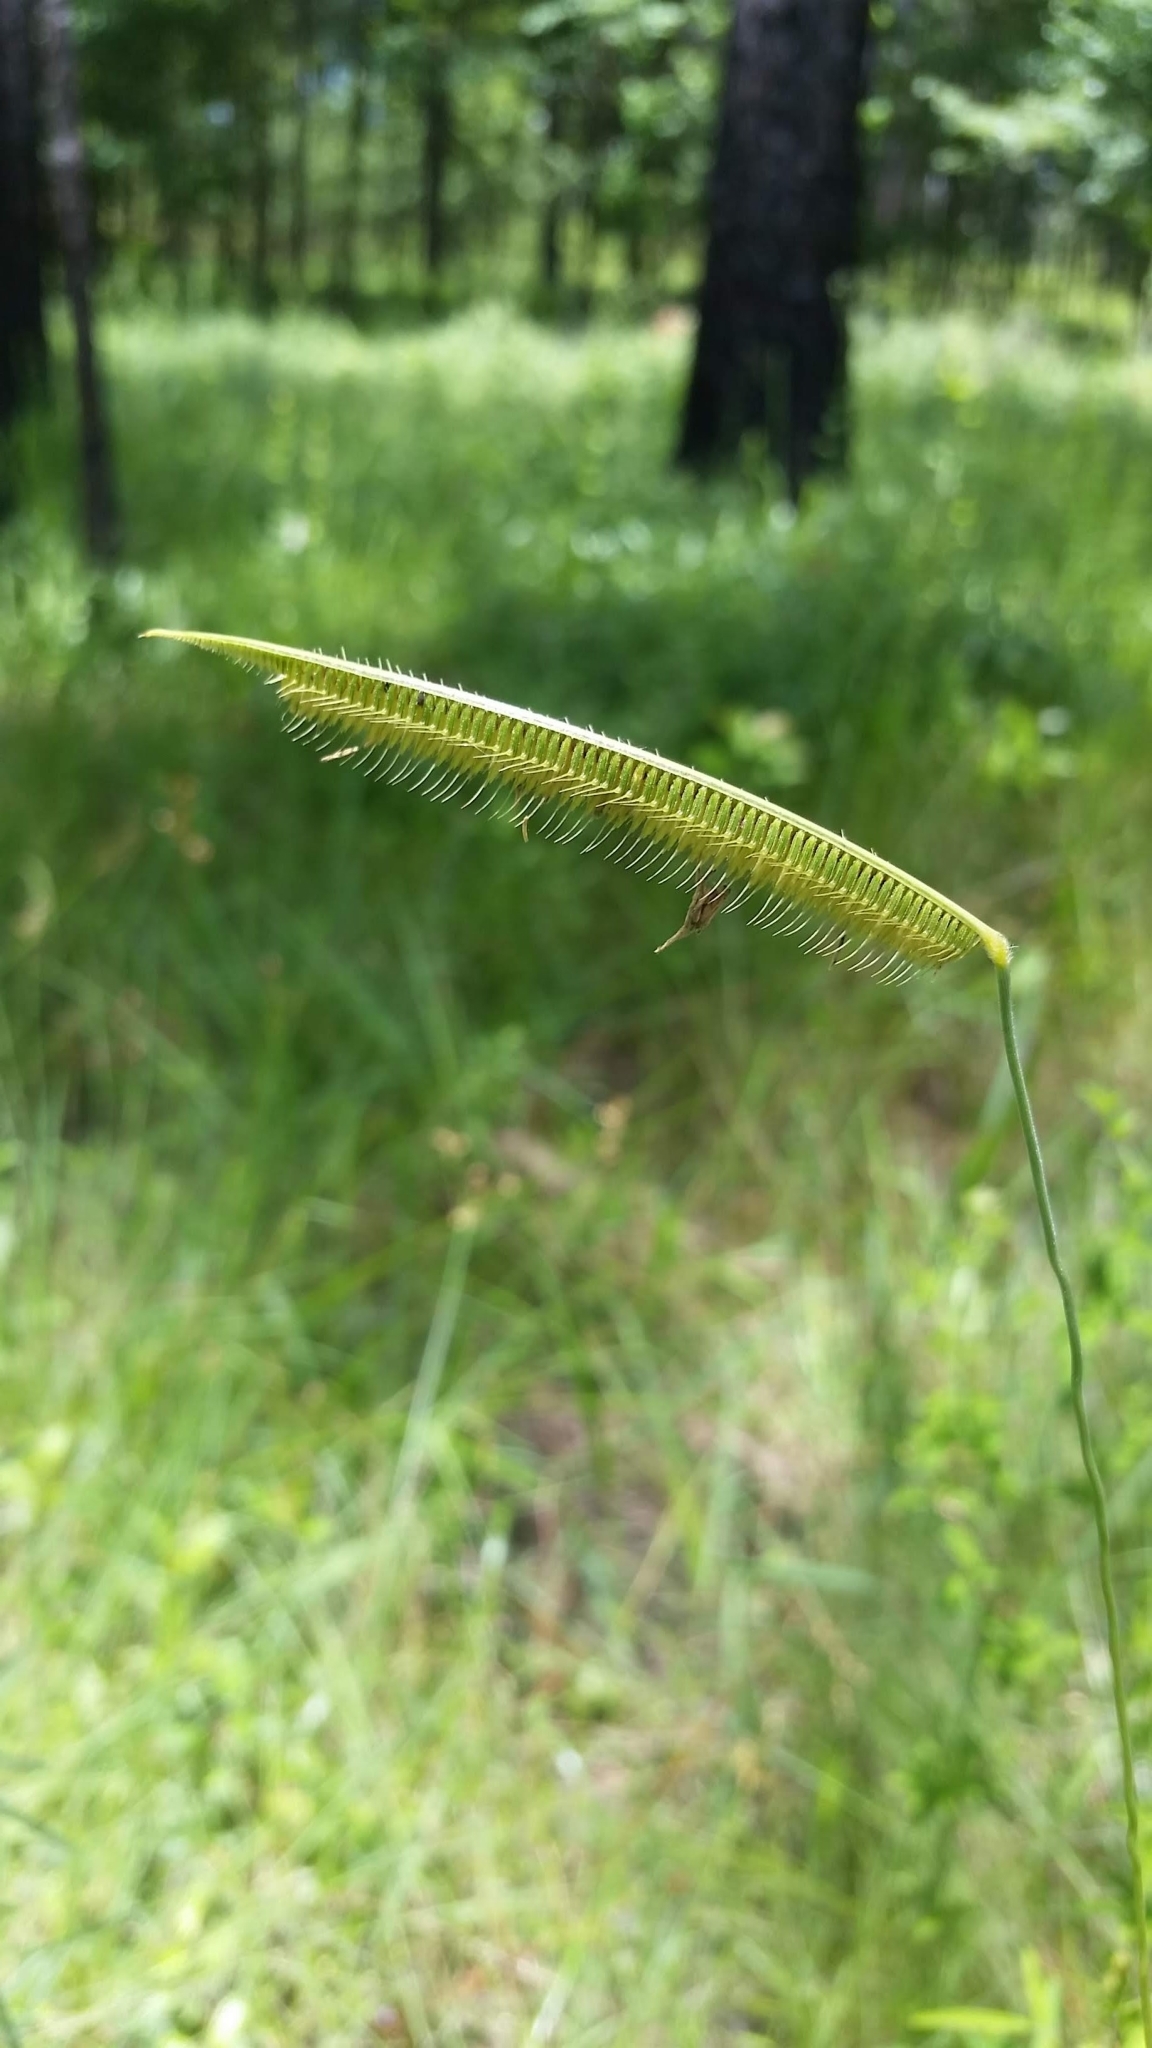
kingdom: Plantae
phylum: Tracheophyta
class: Liliopsida
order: Poales
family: Poaceae
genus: Ctenium
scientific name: Ctenium aromaticum
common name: Toothache grass
